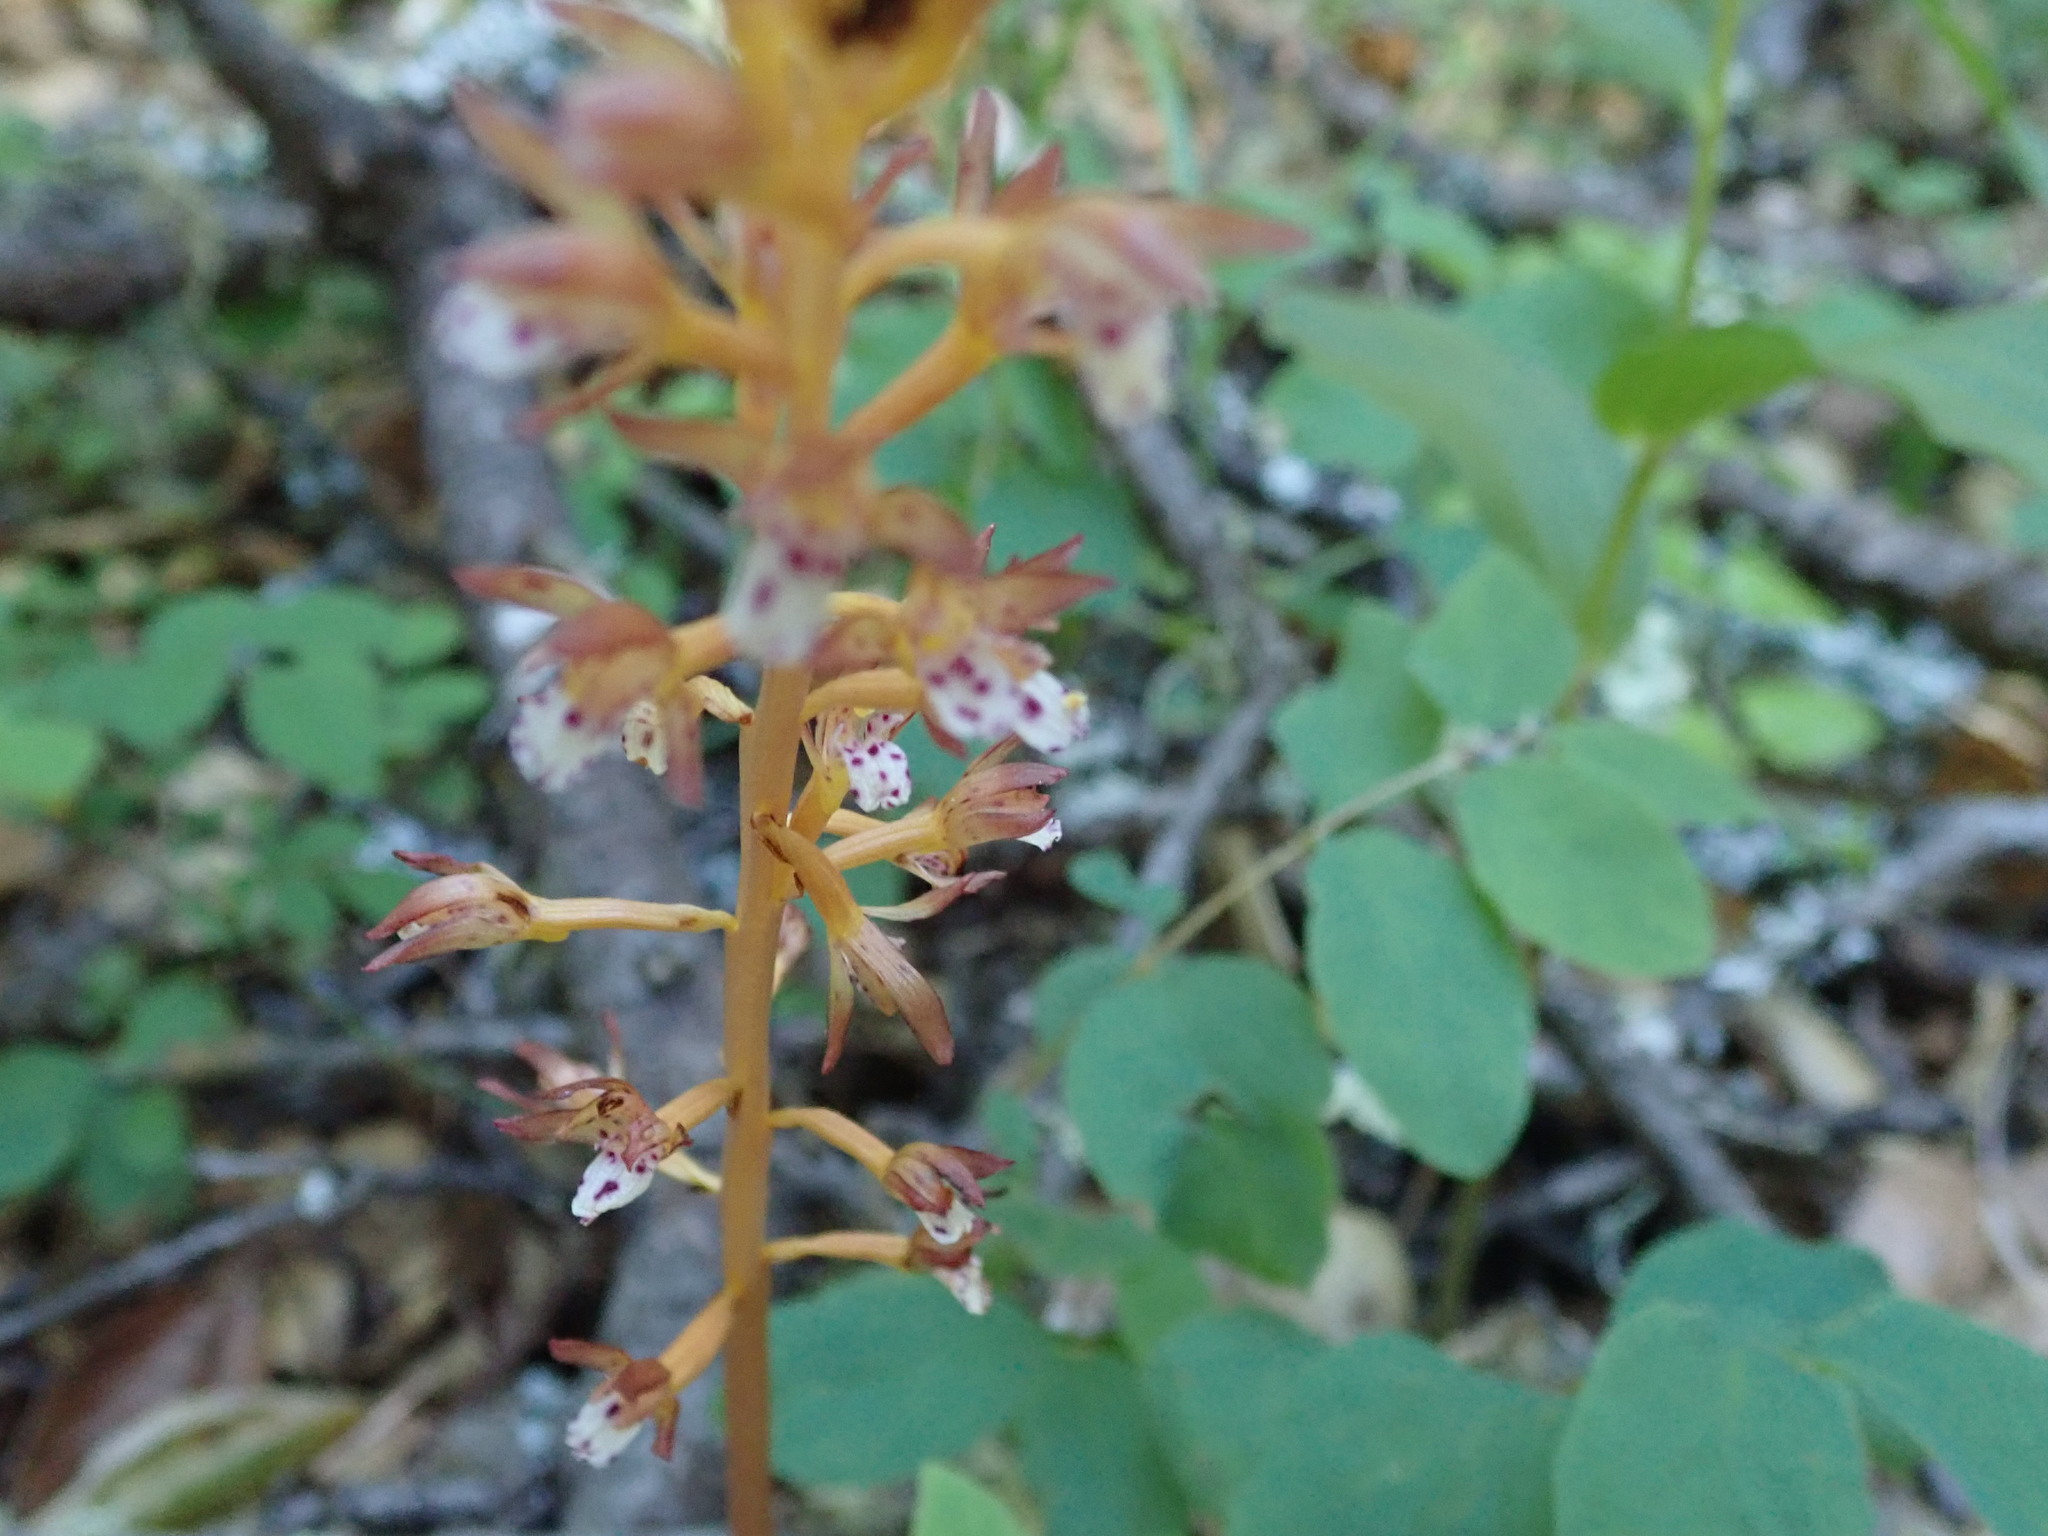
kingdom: Plantae
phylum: Tracheophyta
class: Liliopsida
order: Asparagales
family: Orchidaceae
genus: Corallorhiza
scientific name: Corallorhiza maculata
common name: Spotted coralroot
